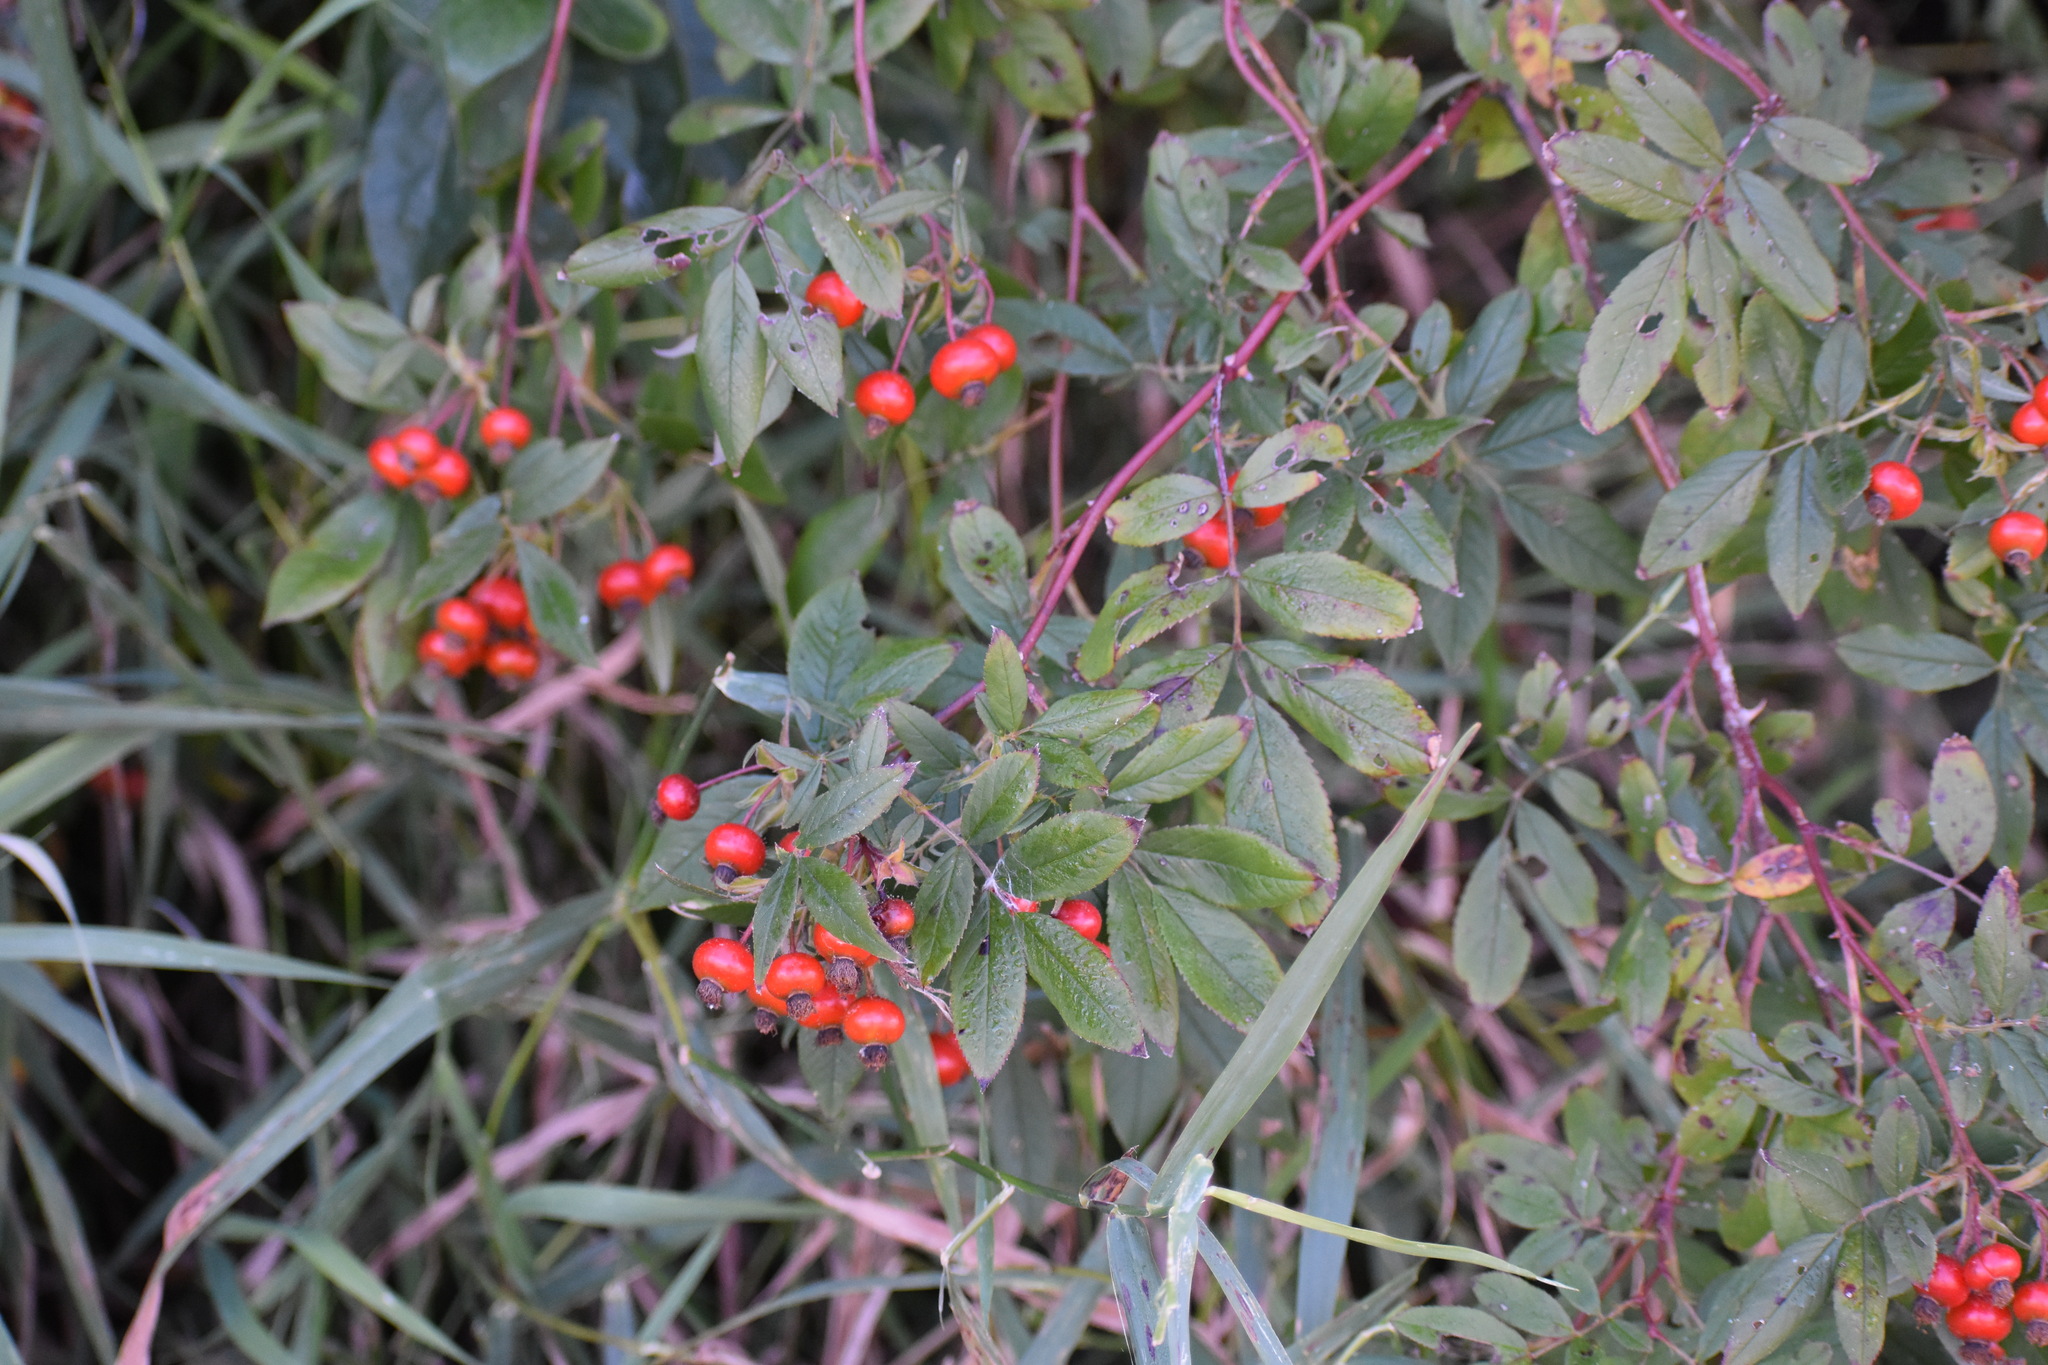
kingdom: Plantae
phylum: Tracheophyta
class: Magnoliopsida
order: Rosales
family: Rosaceae
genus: Rosa
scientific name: Rosa palustris
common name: Swamp rose
